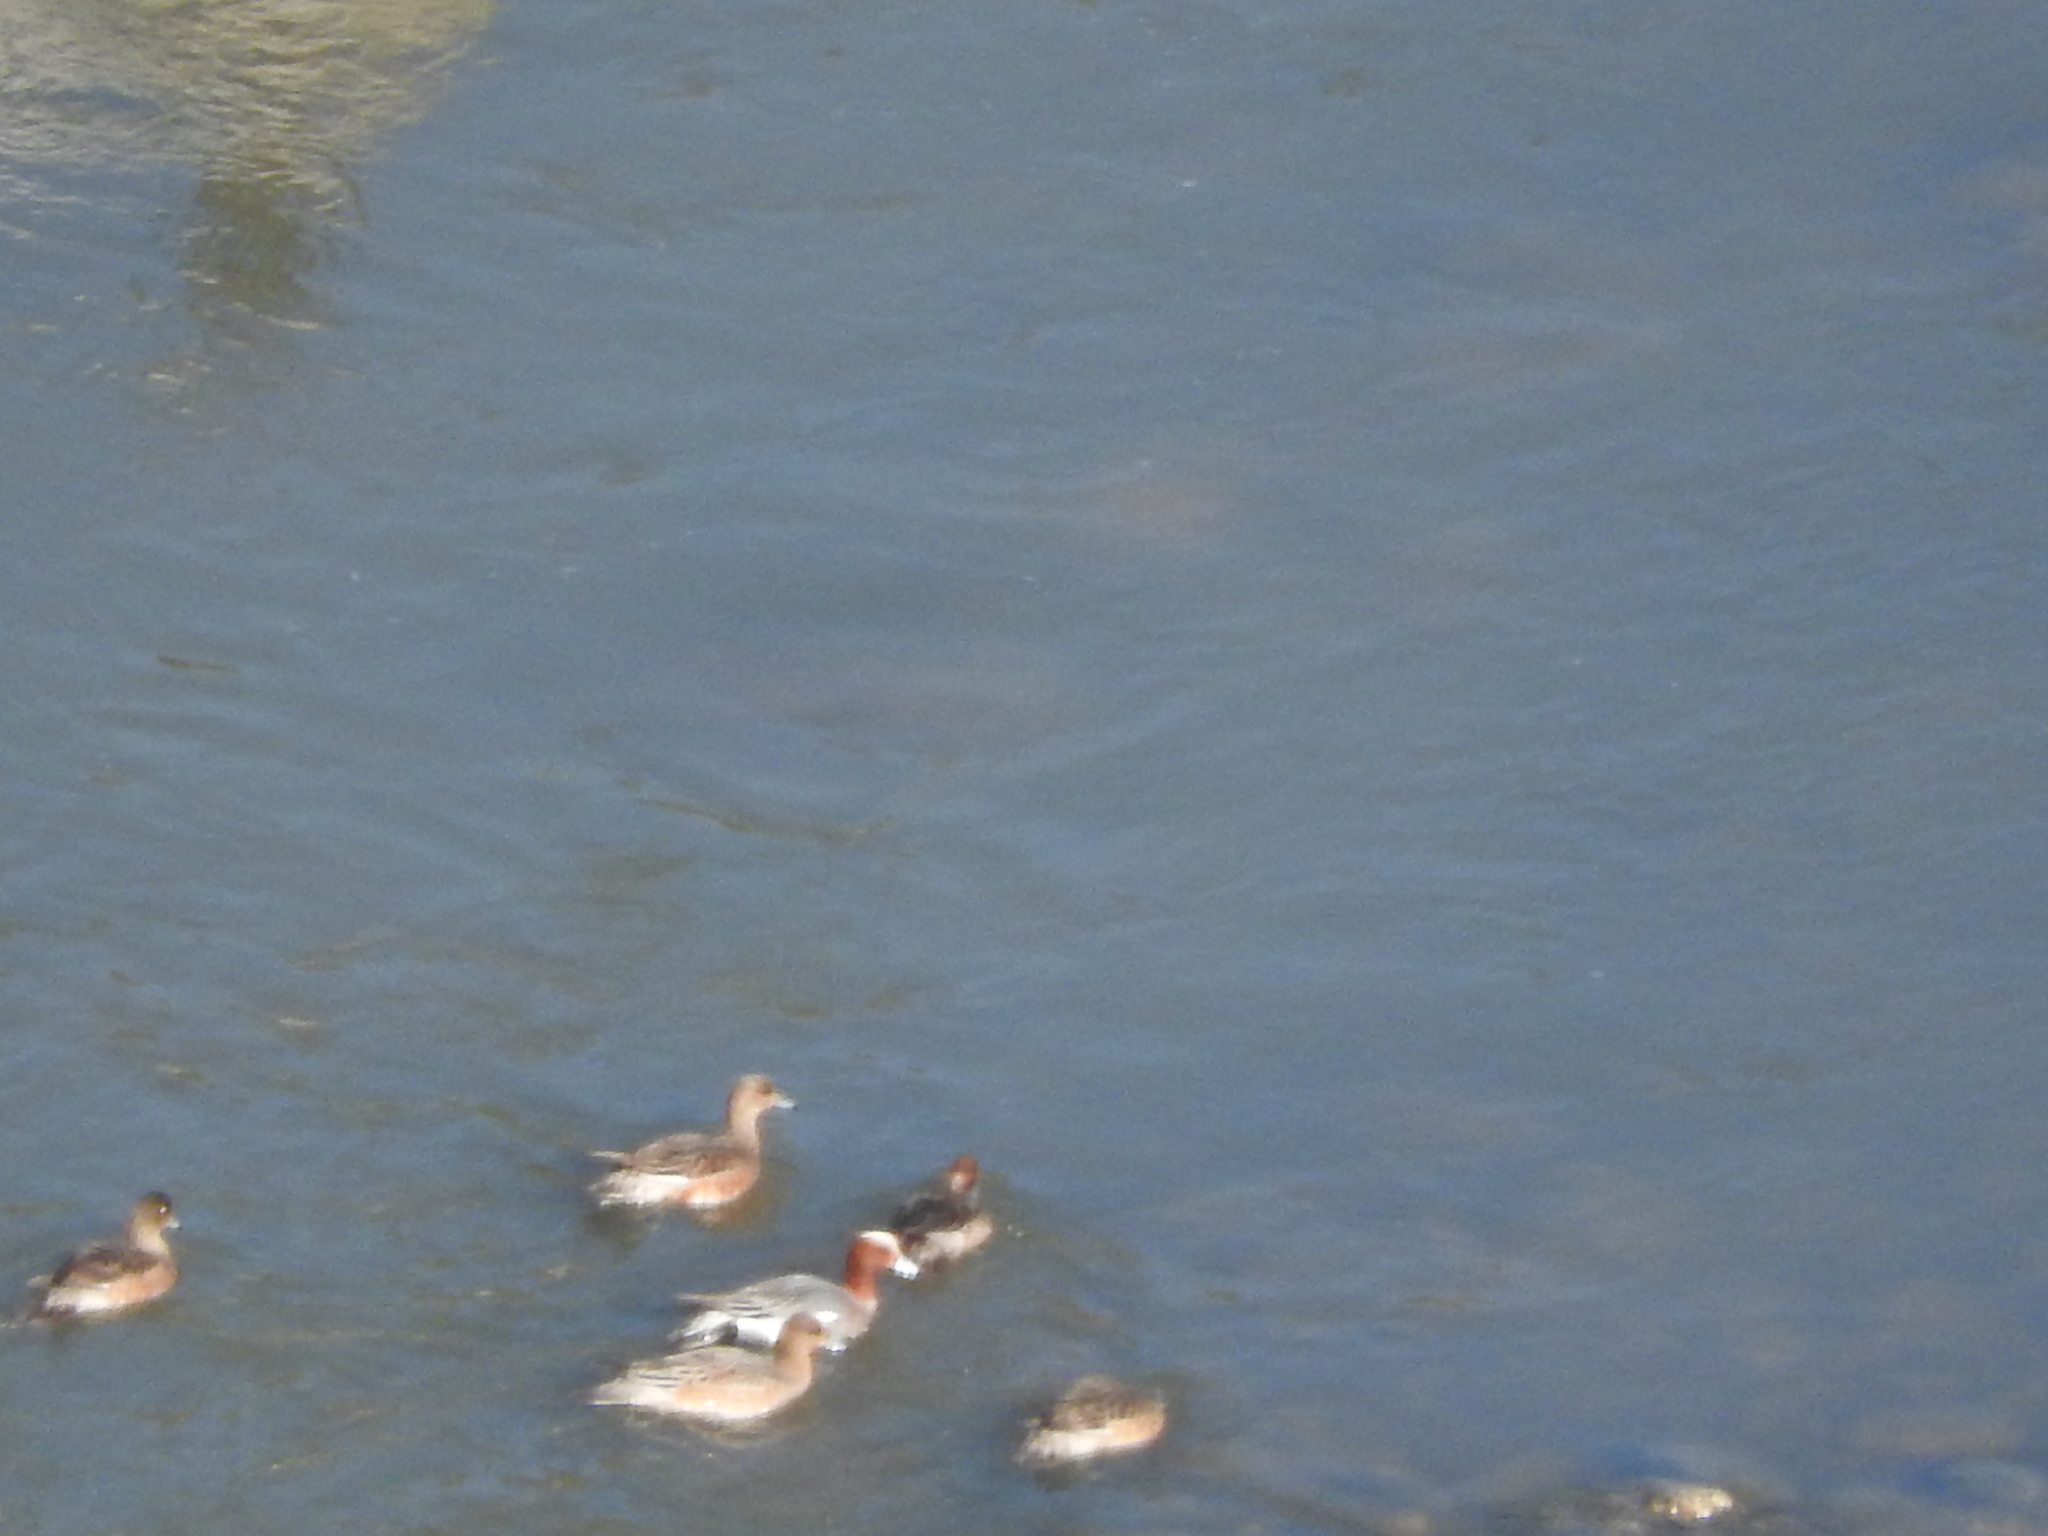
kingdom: Animalia
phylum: Chordata
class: Aves
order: Anseriformes
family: Anatidae
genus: Mareca
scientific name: Mareca penelope
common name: Eurasian wigeon
